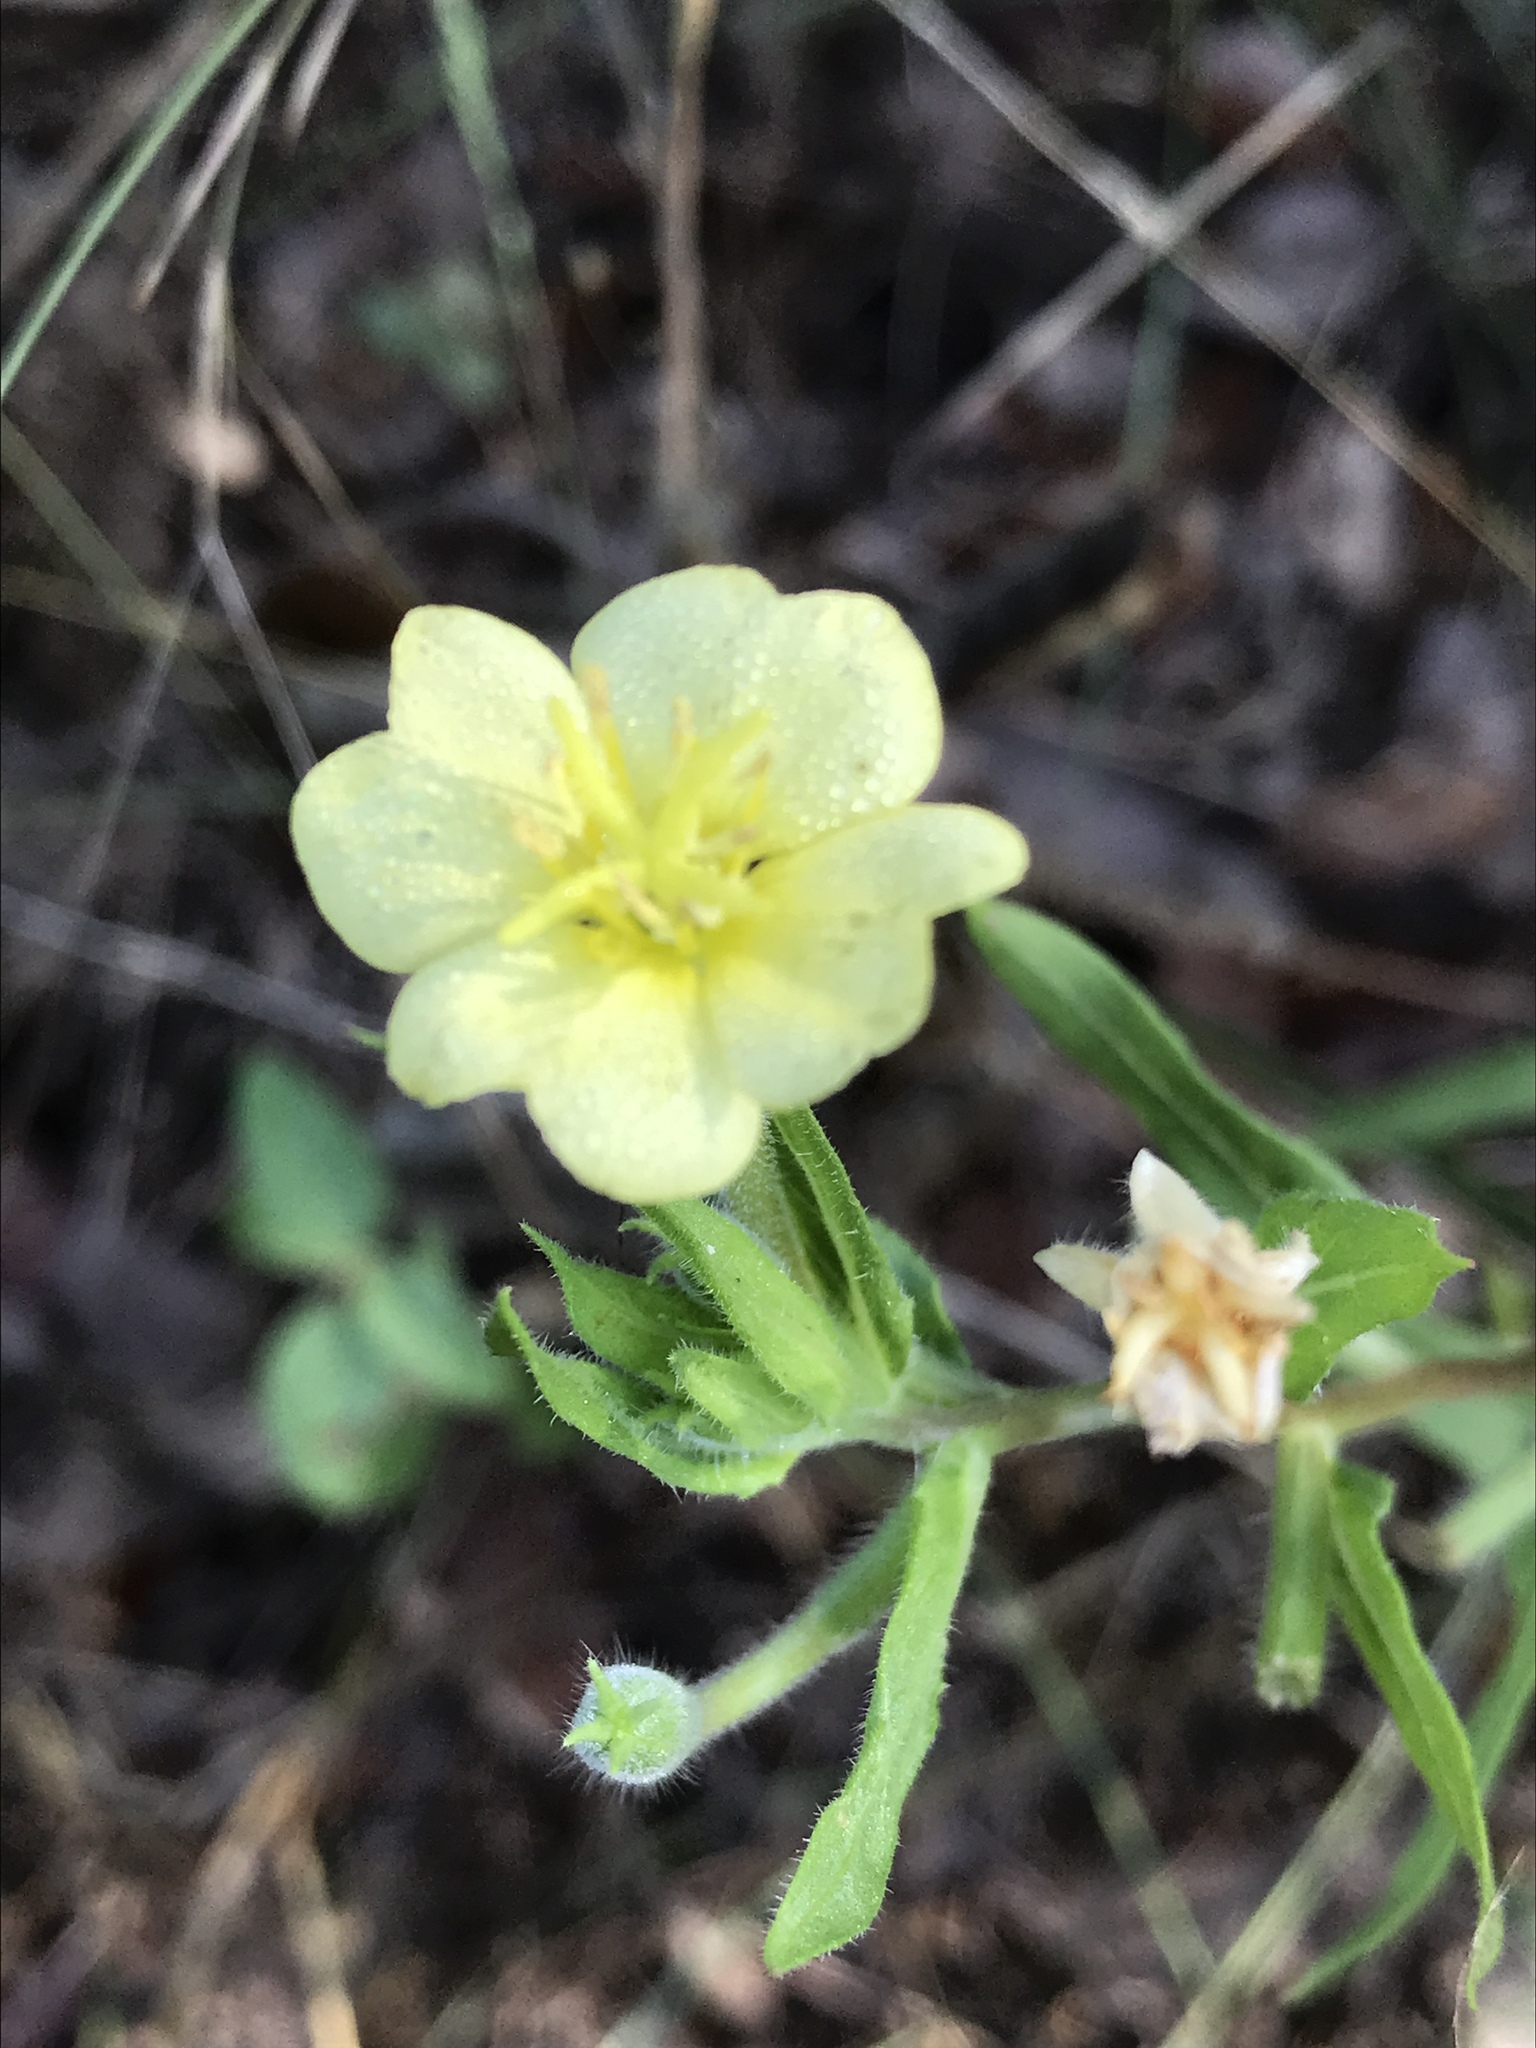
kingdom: Plantae
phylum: Tracheophyta
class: Magnoliopsida
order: Myrtales
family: Onagraceae
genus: Oenothera
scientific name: Oenothera laciniata
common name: Cut-leaved evening-primrose
